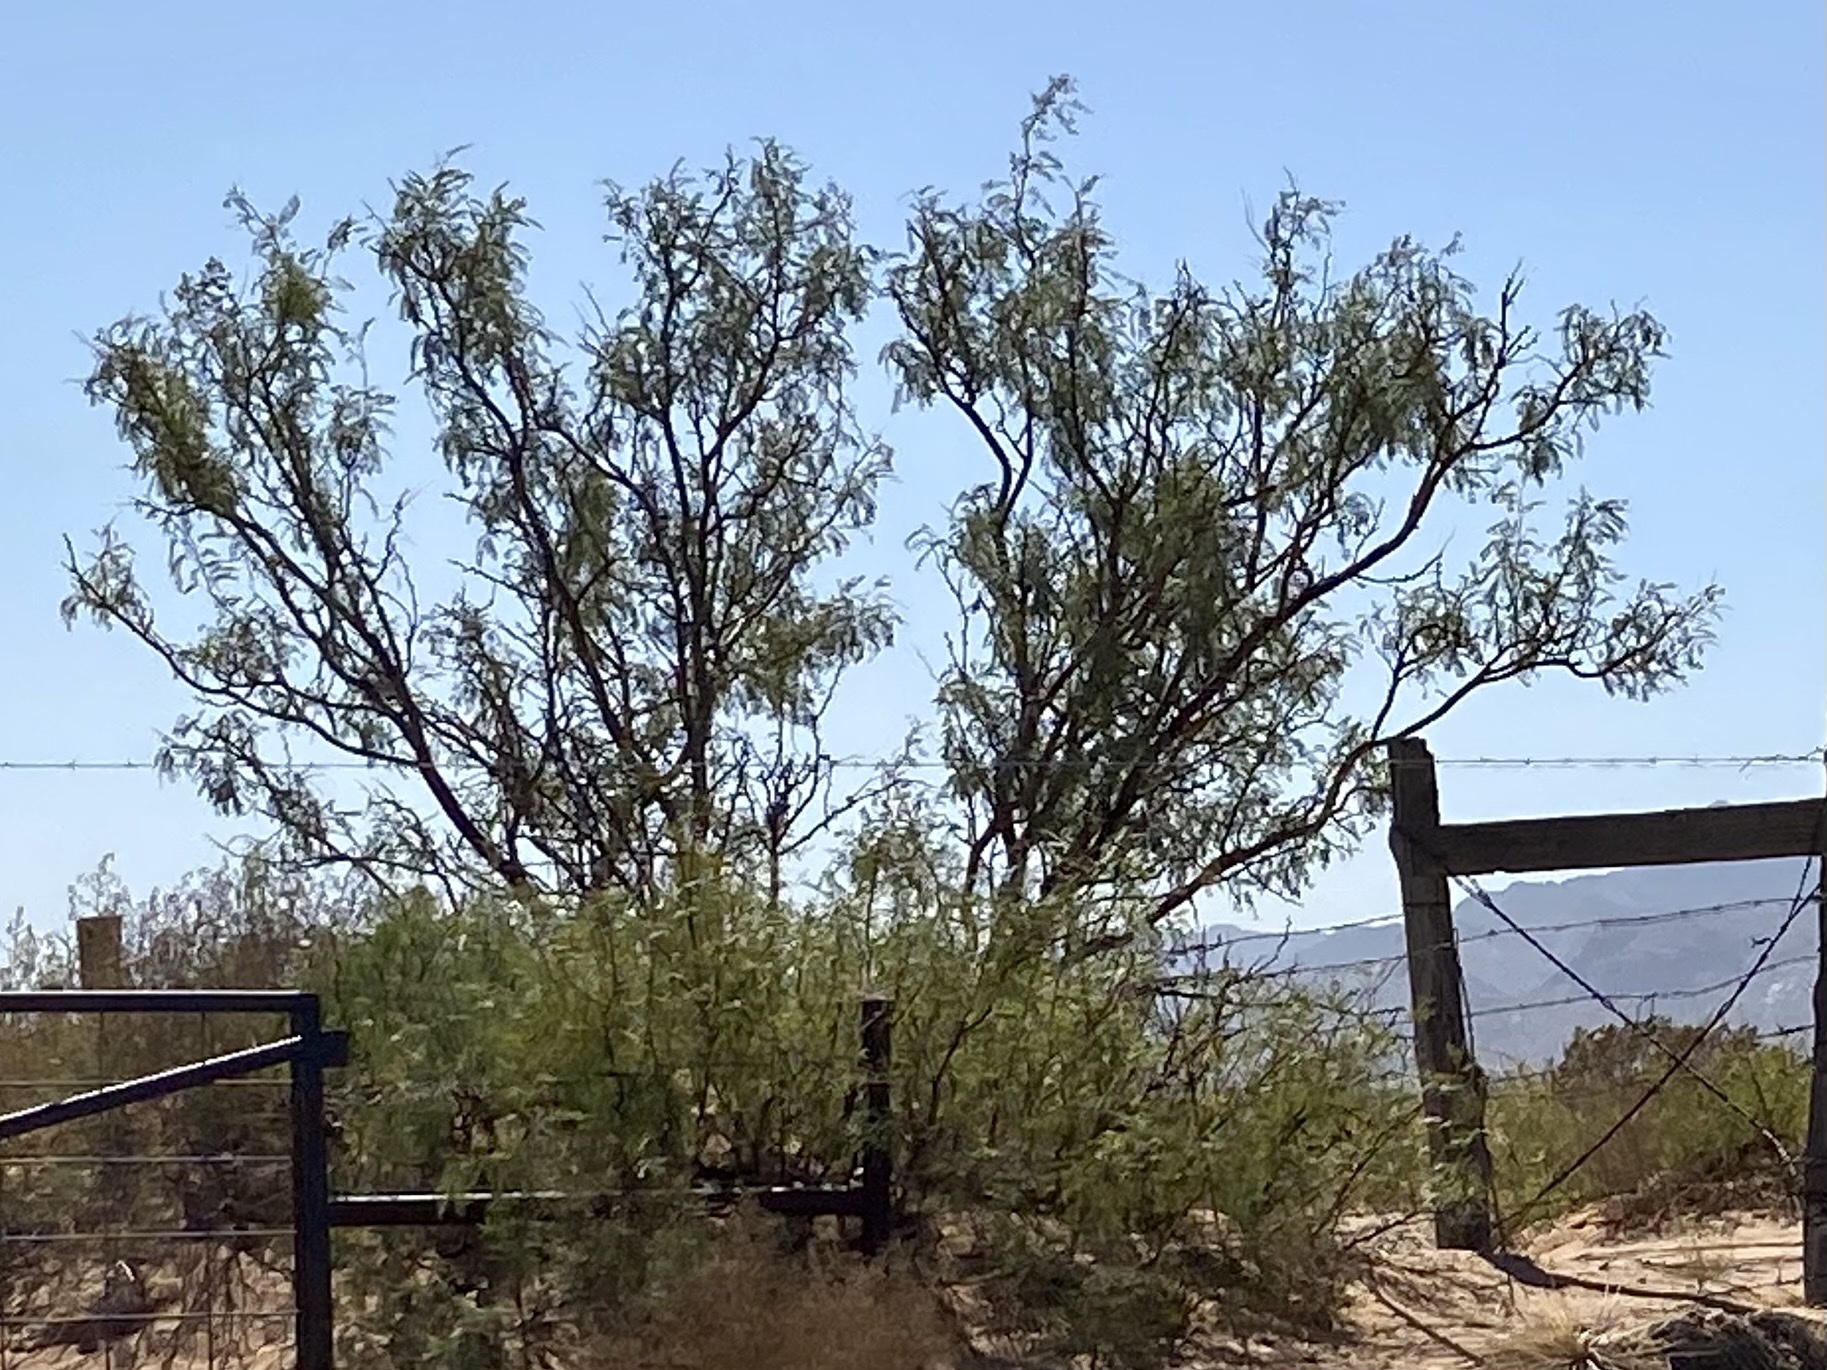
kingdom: Plantae
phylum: Tracheophyta
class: Magnoliopsida
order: Fabales
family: Fabaceae
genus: Prosopis
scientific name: Prosopis glandulosa
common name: Honey mesquite
